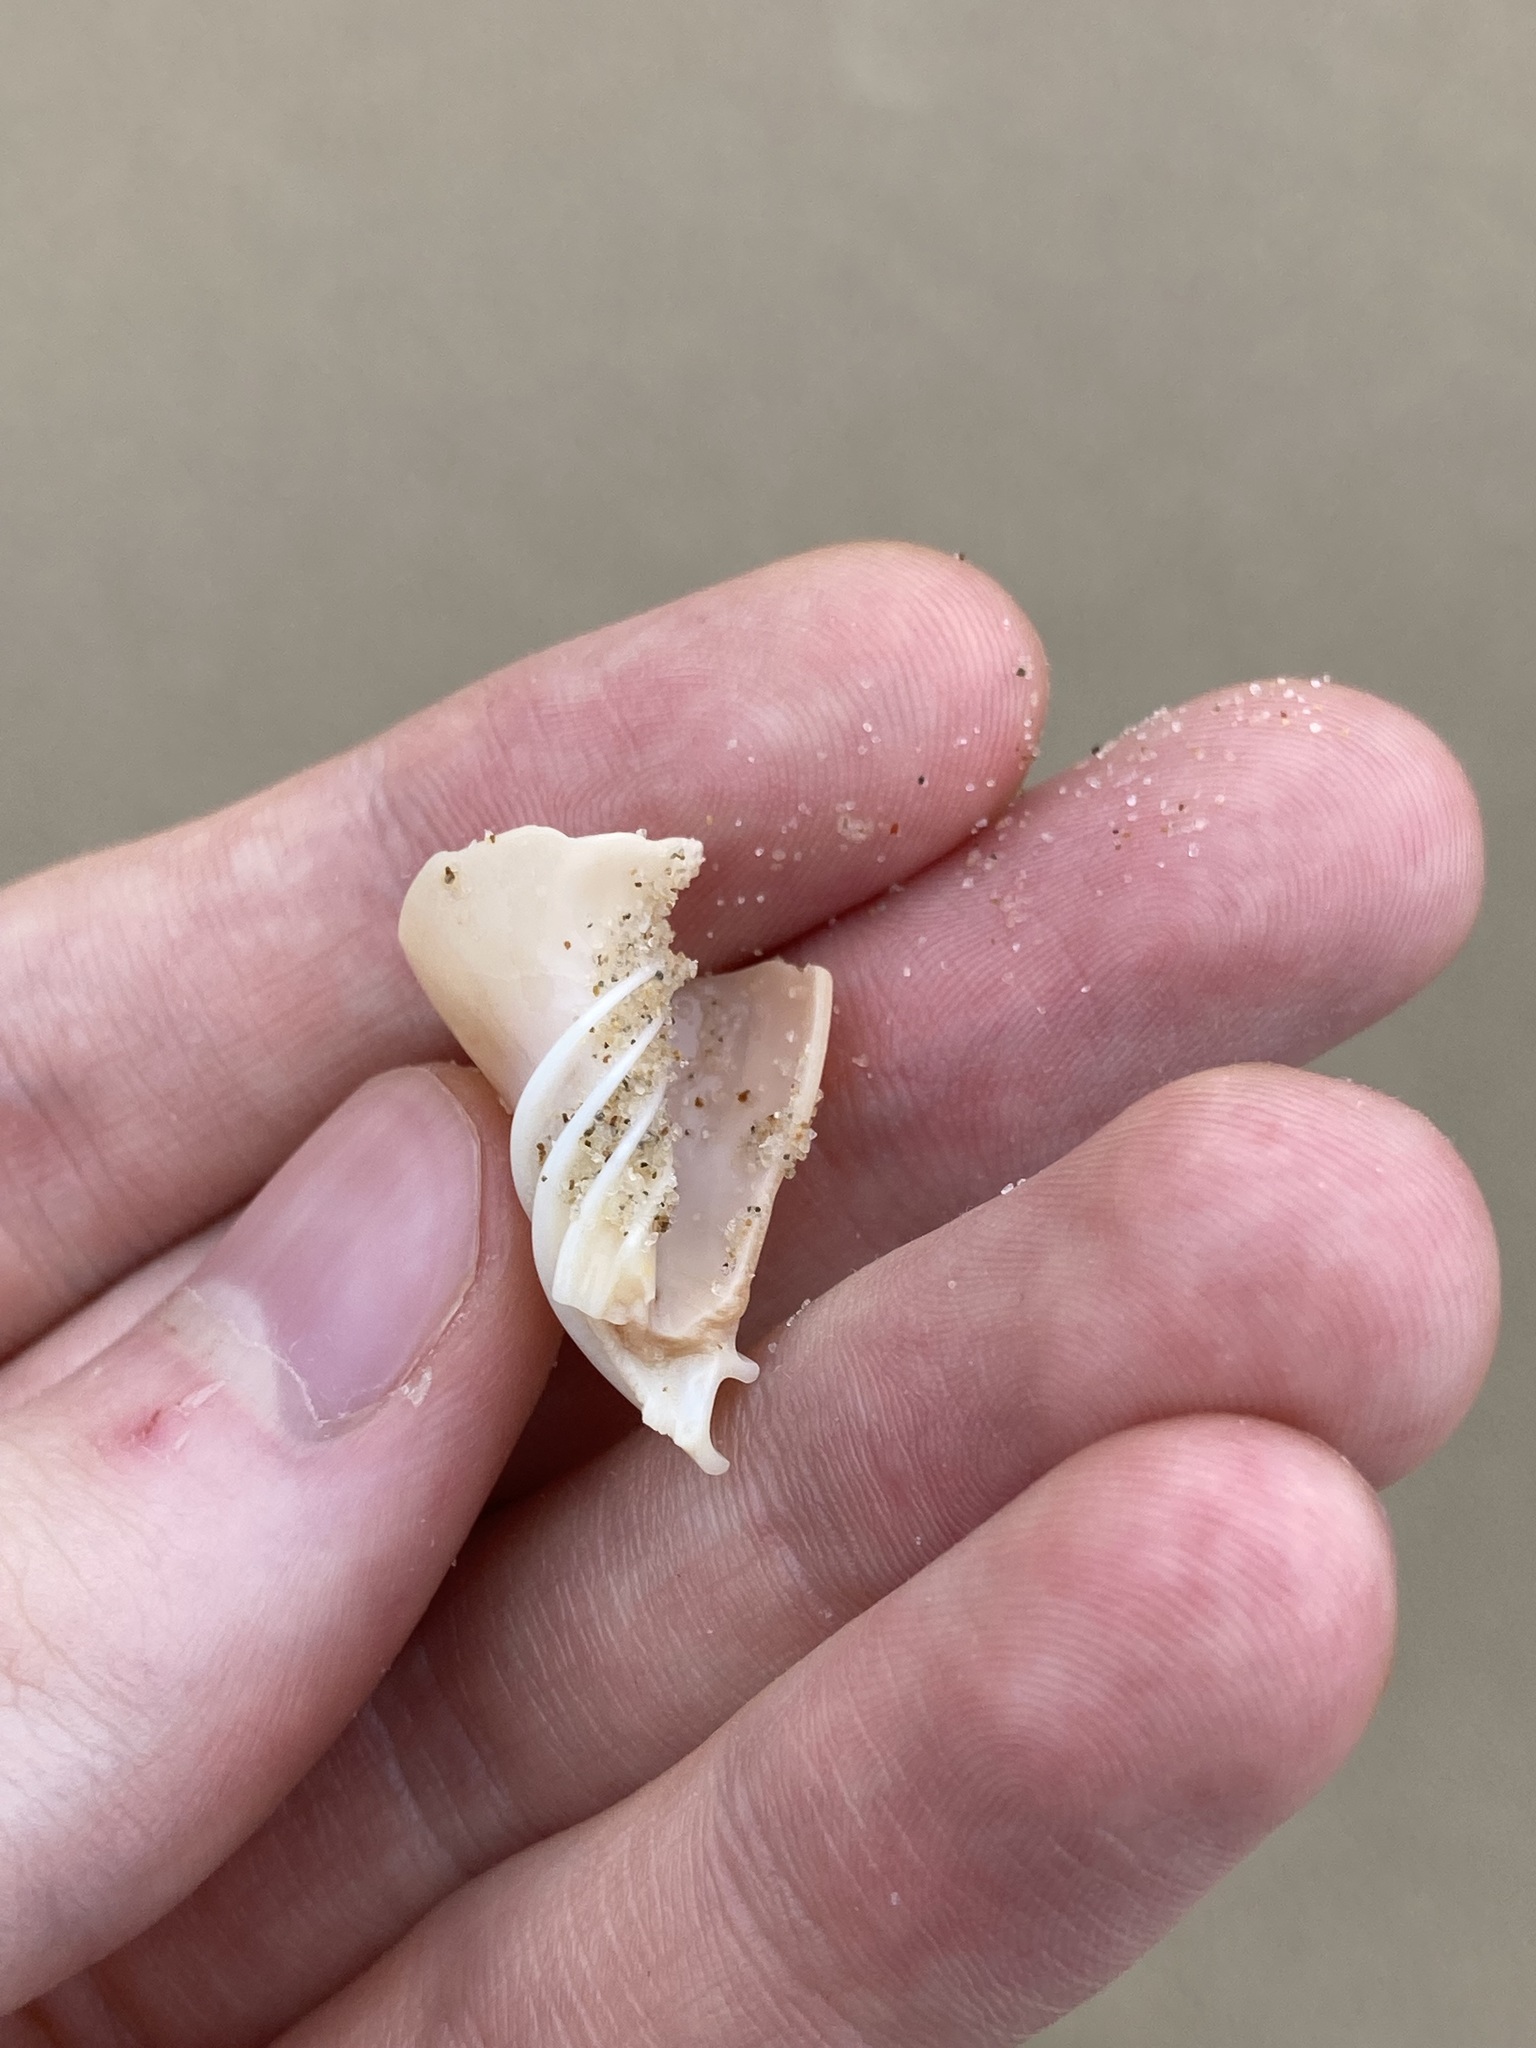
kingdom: Animalia
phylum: Mollusca
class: Gastropoda
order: Neogastropoda
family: Volutidae
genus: Amoria
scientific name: Amoria hunteri
